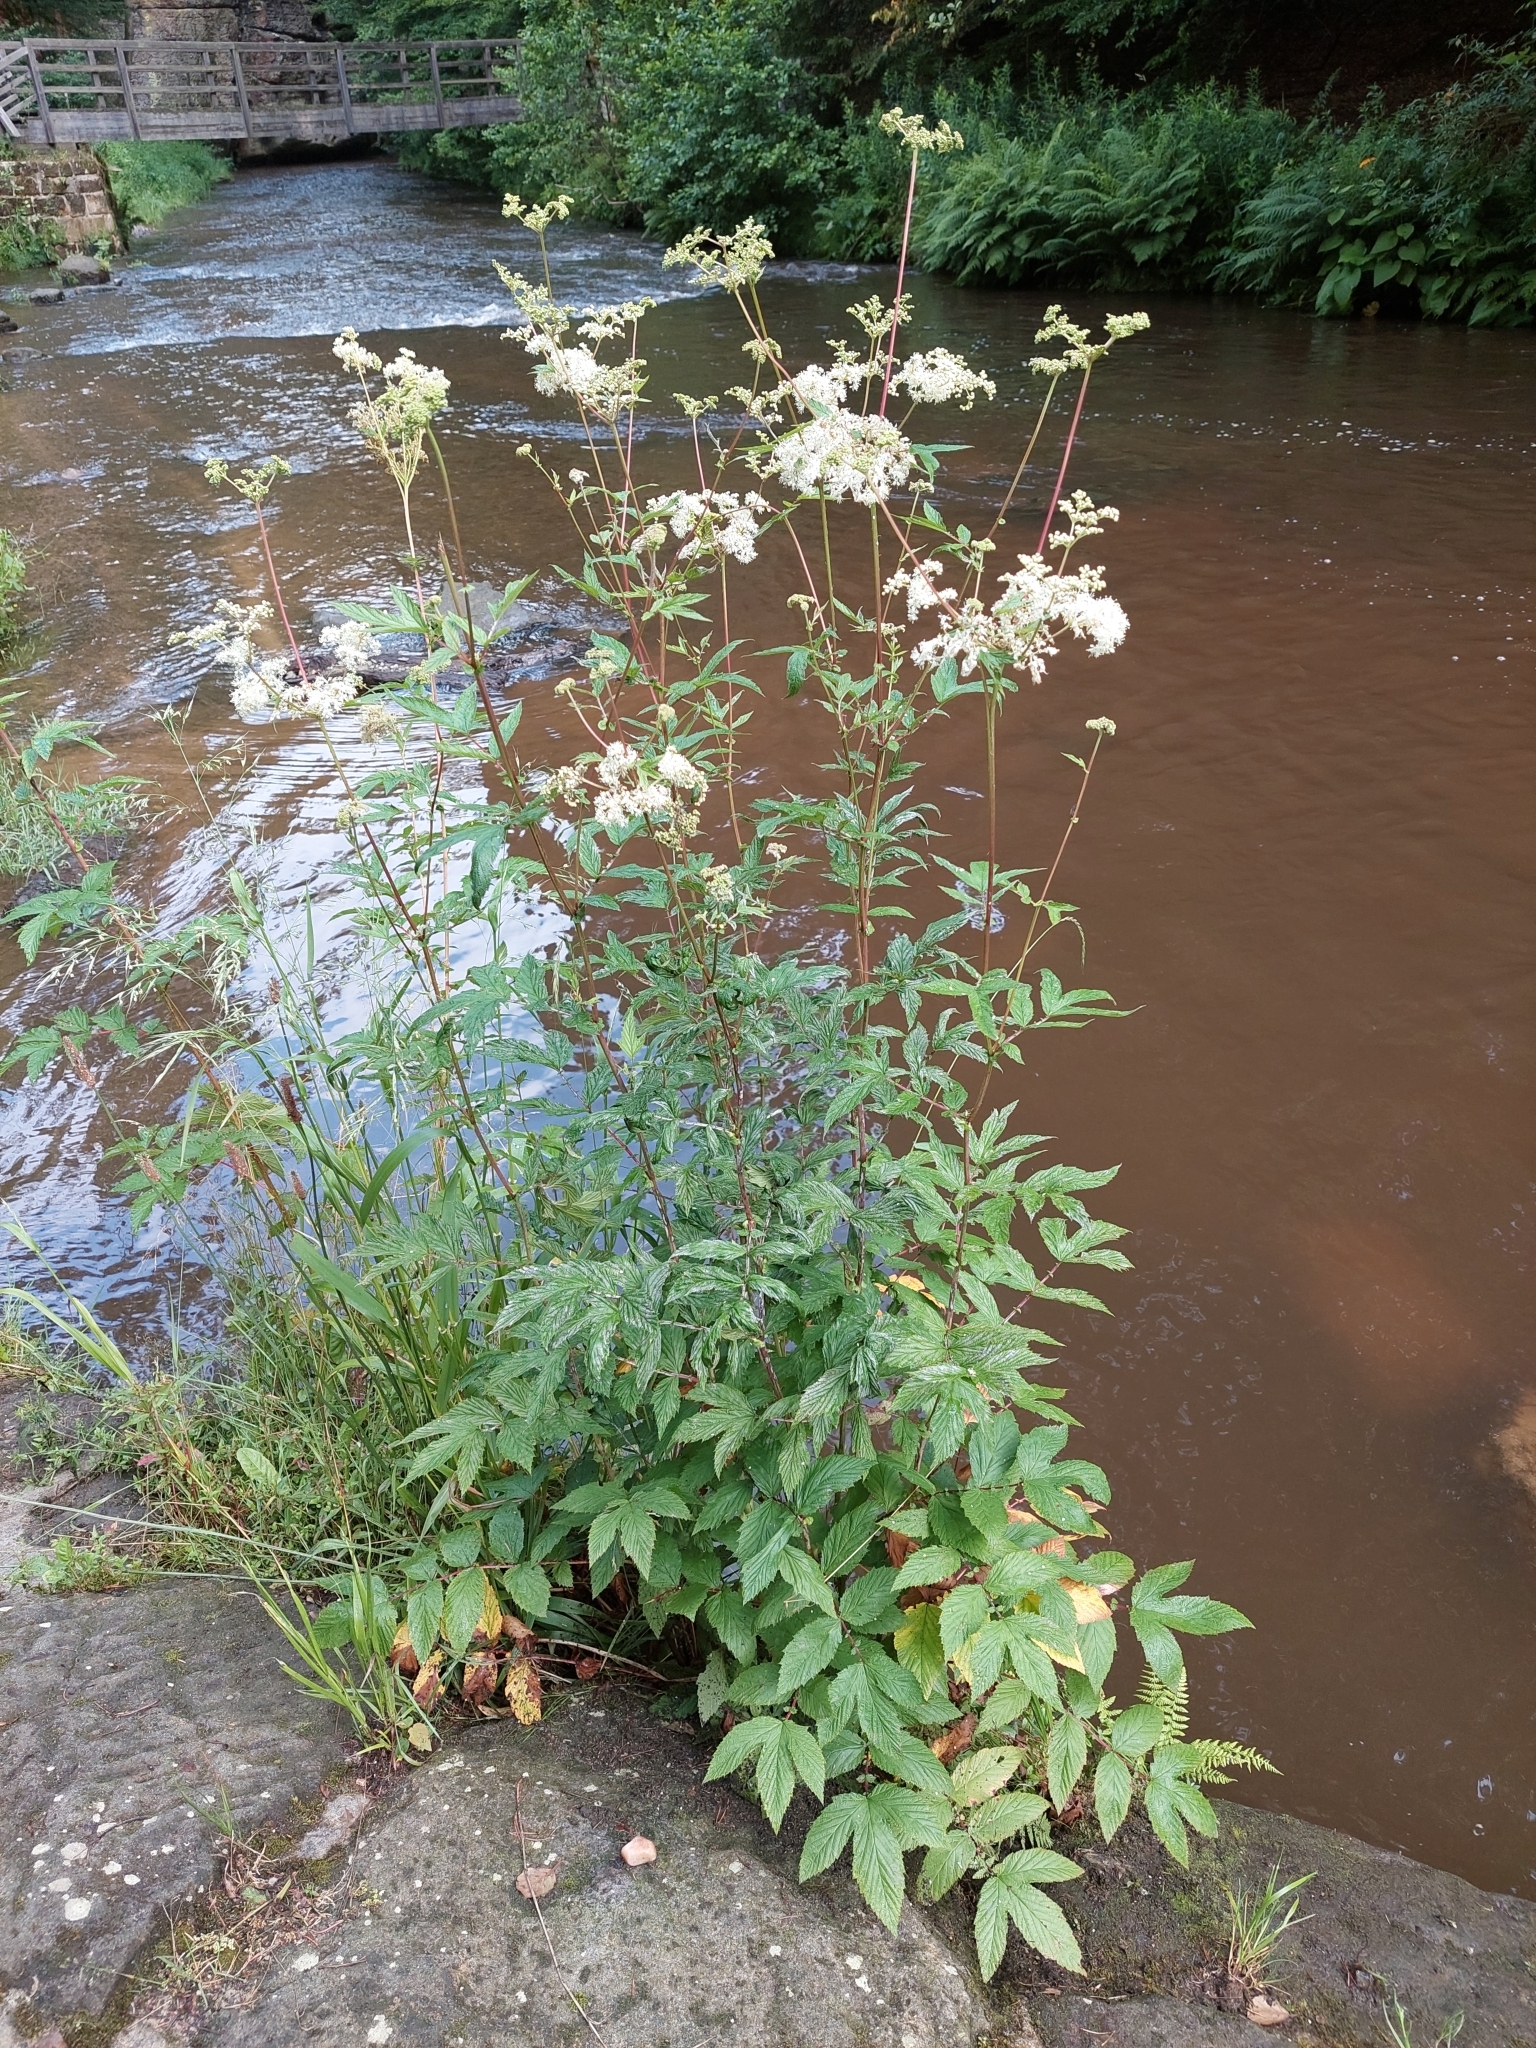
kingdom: Plantae
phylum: Tracheophyta
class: Magnoliopsida
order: Rosales
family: Rosaceae
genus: Filipendula
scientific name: Filipendula ulmaria
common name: Meadowsweet
